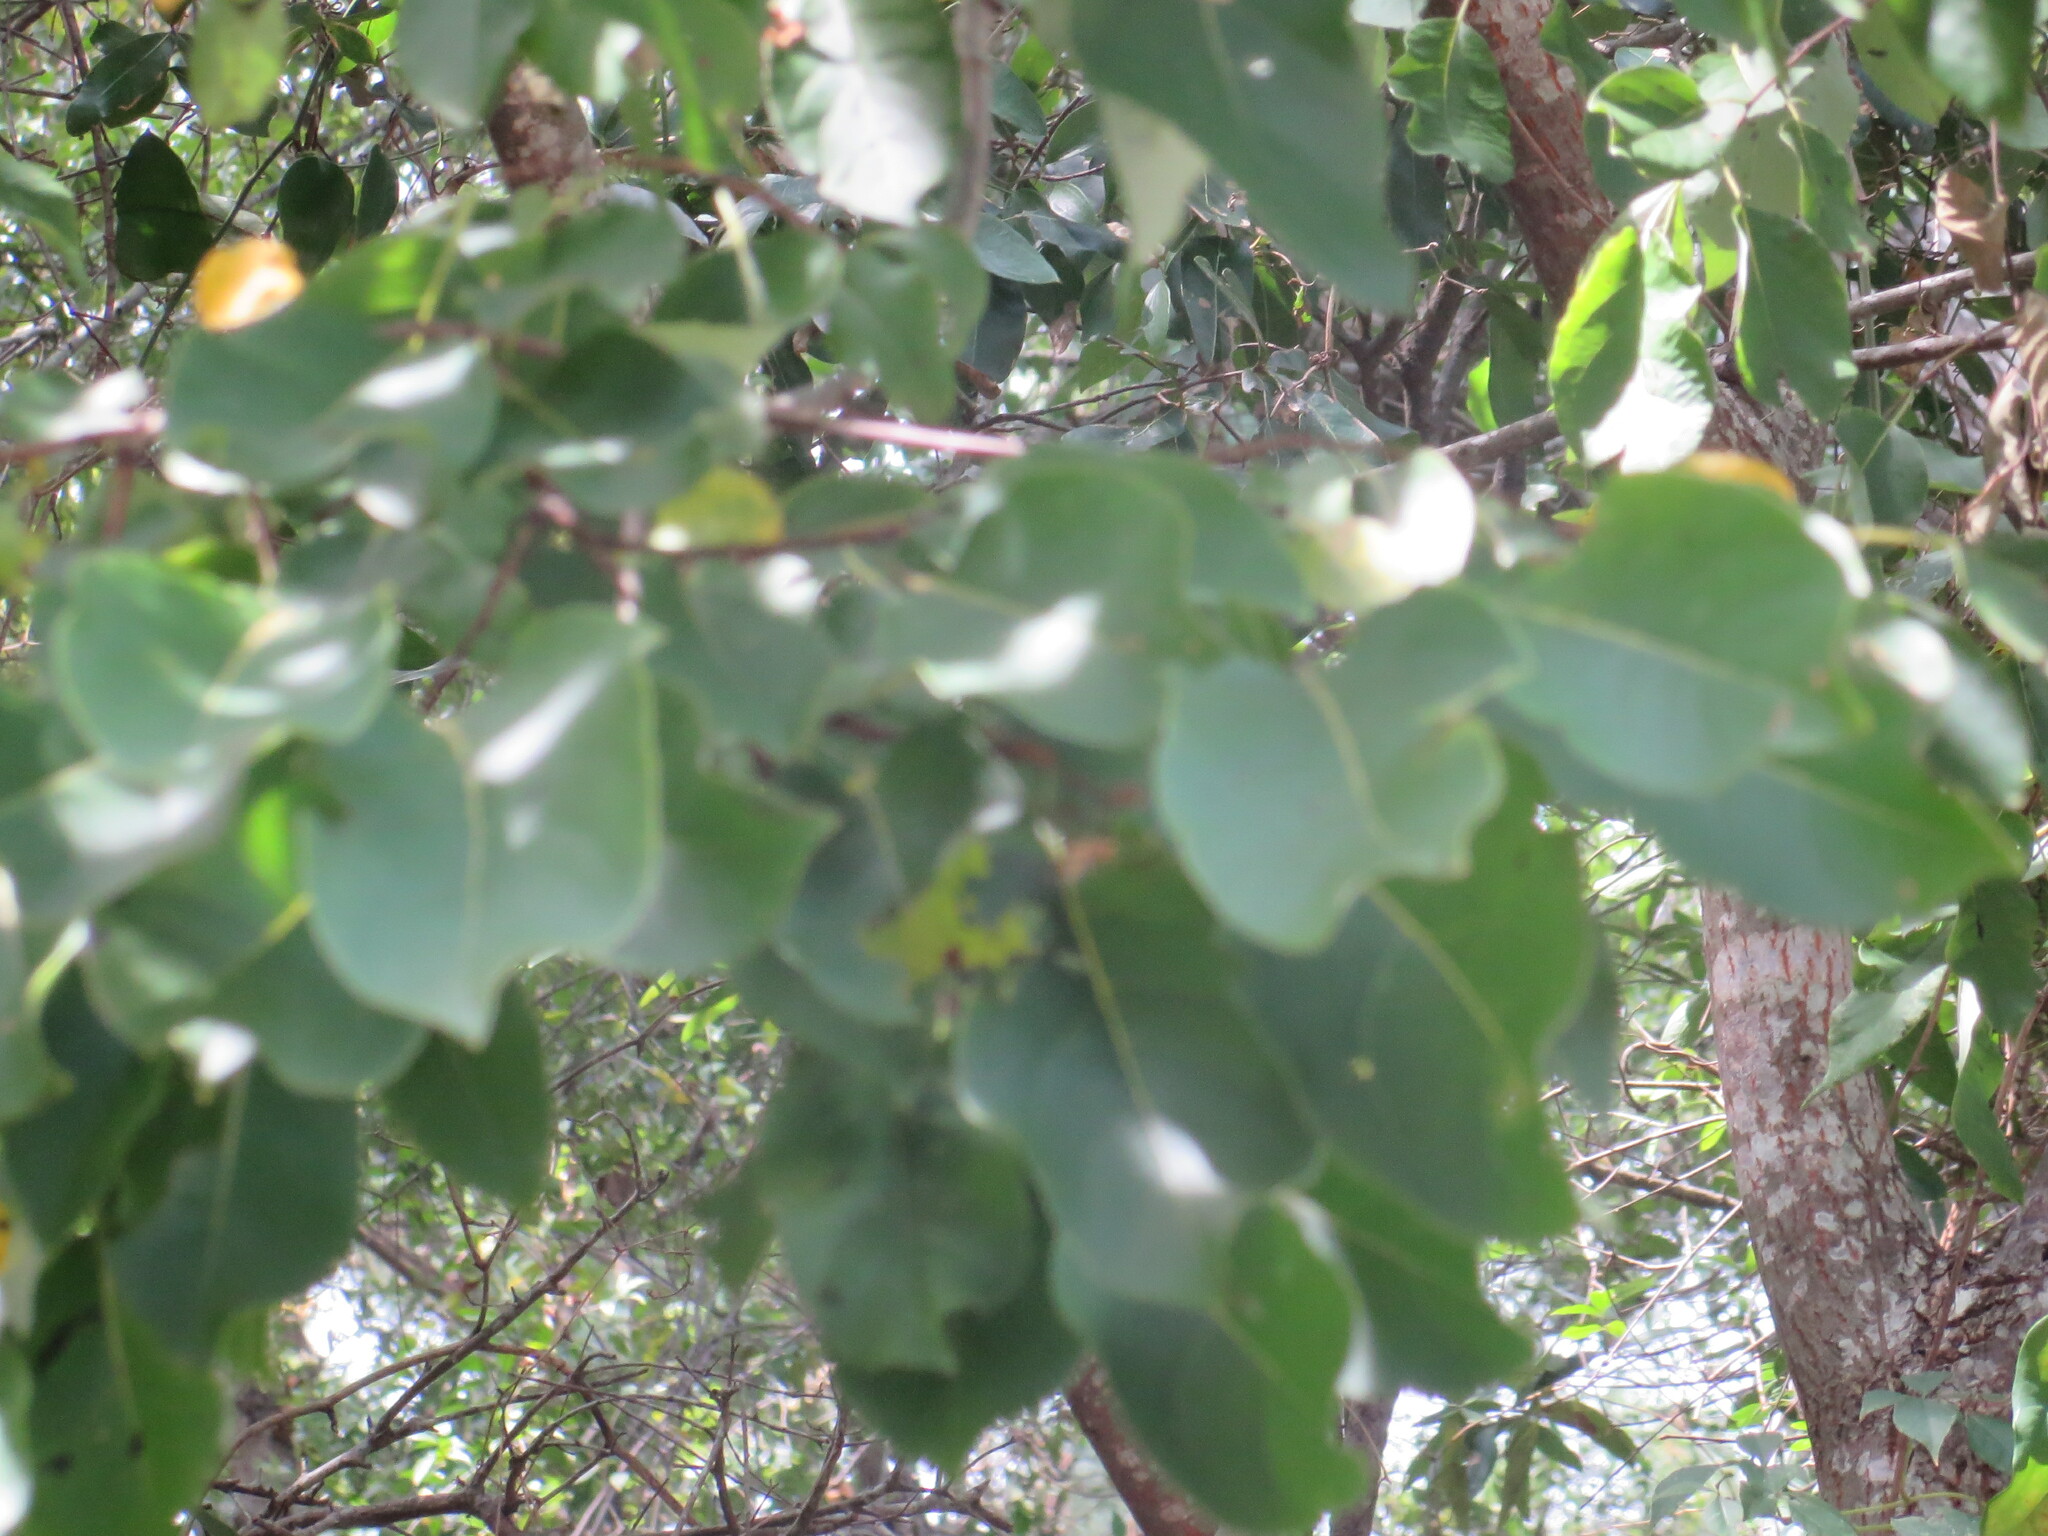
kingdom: Plantae
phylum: Tracheophyta
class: Magnoliopsida
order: Ericales
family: Ebenaceae
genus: Diospyros
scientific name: Diospyros virginiana
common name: Persimmon
